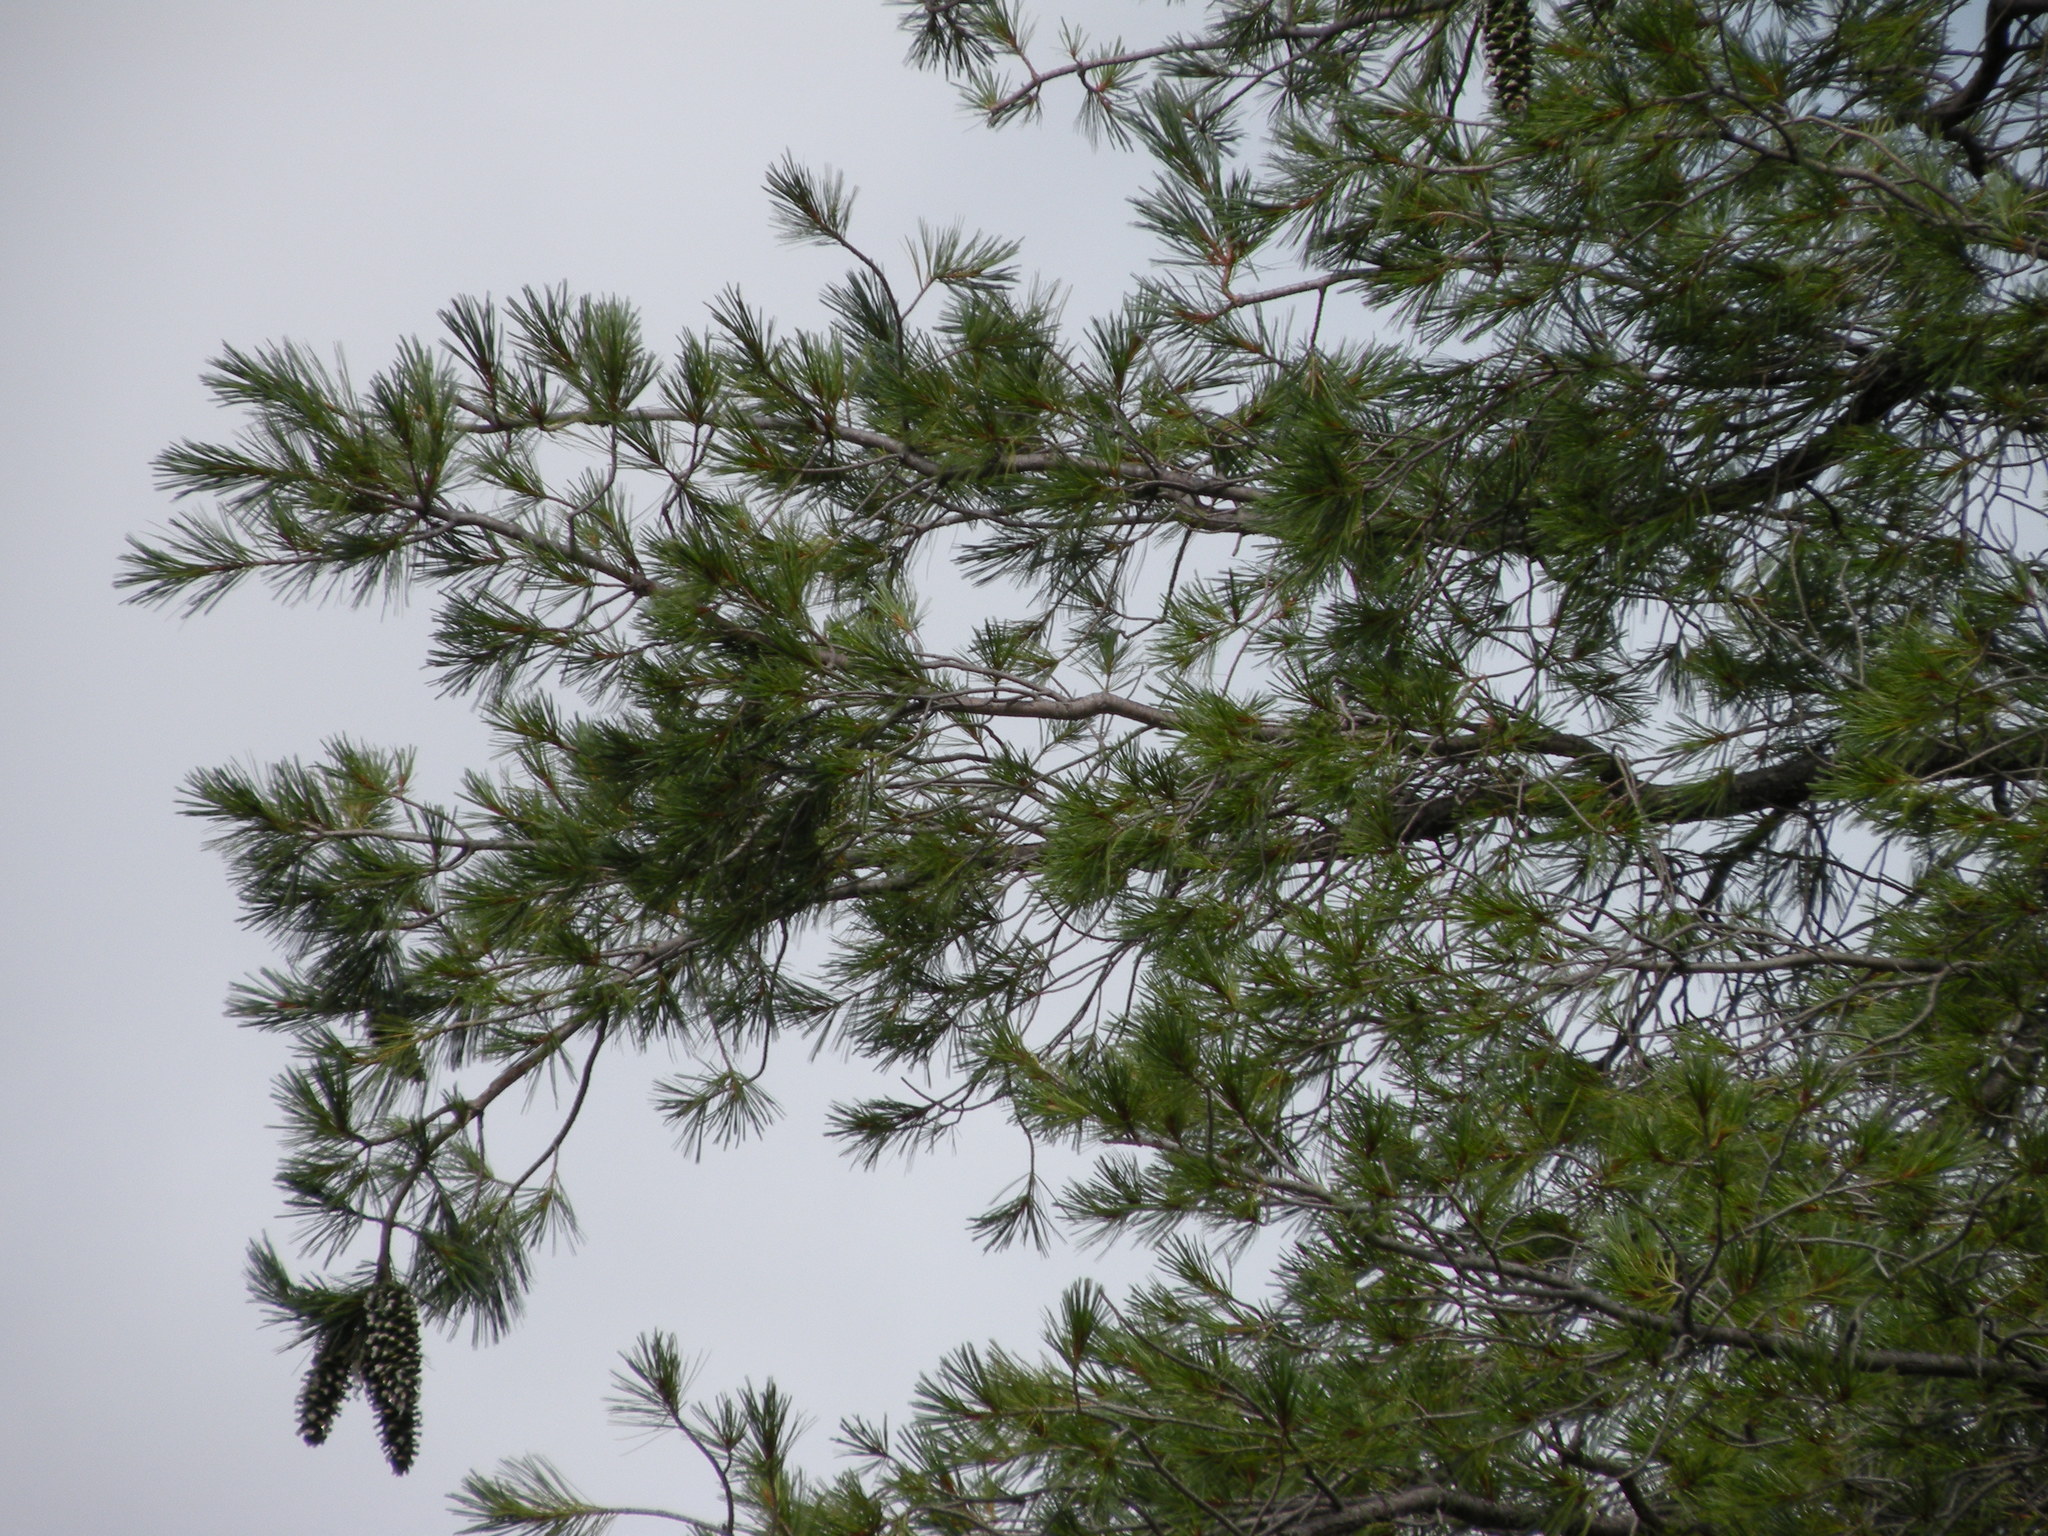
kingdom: Plantae
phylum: Tracheophyta
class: Pinopsida
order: Pinales
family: Pinaceae
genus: Pinus
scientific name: Pinus strobiformis
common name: Southwestern white pine
